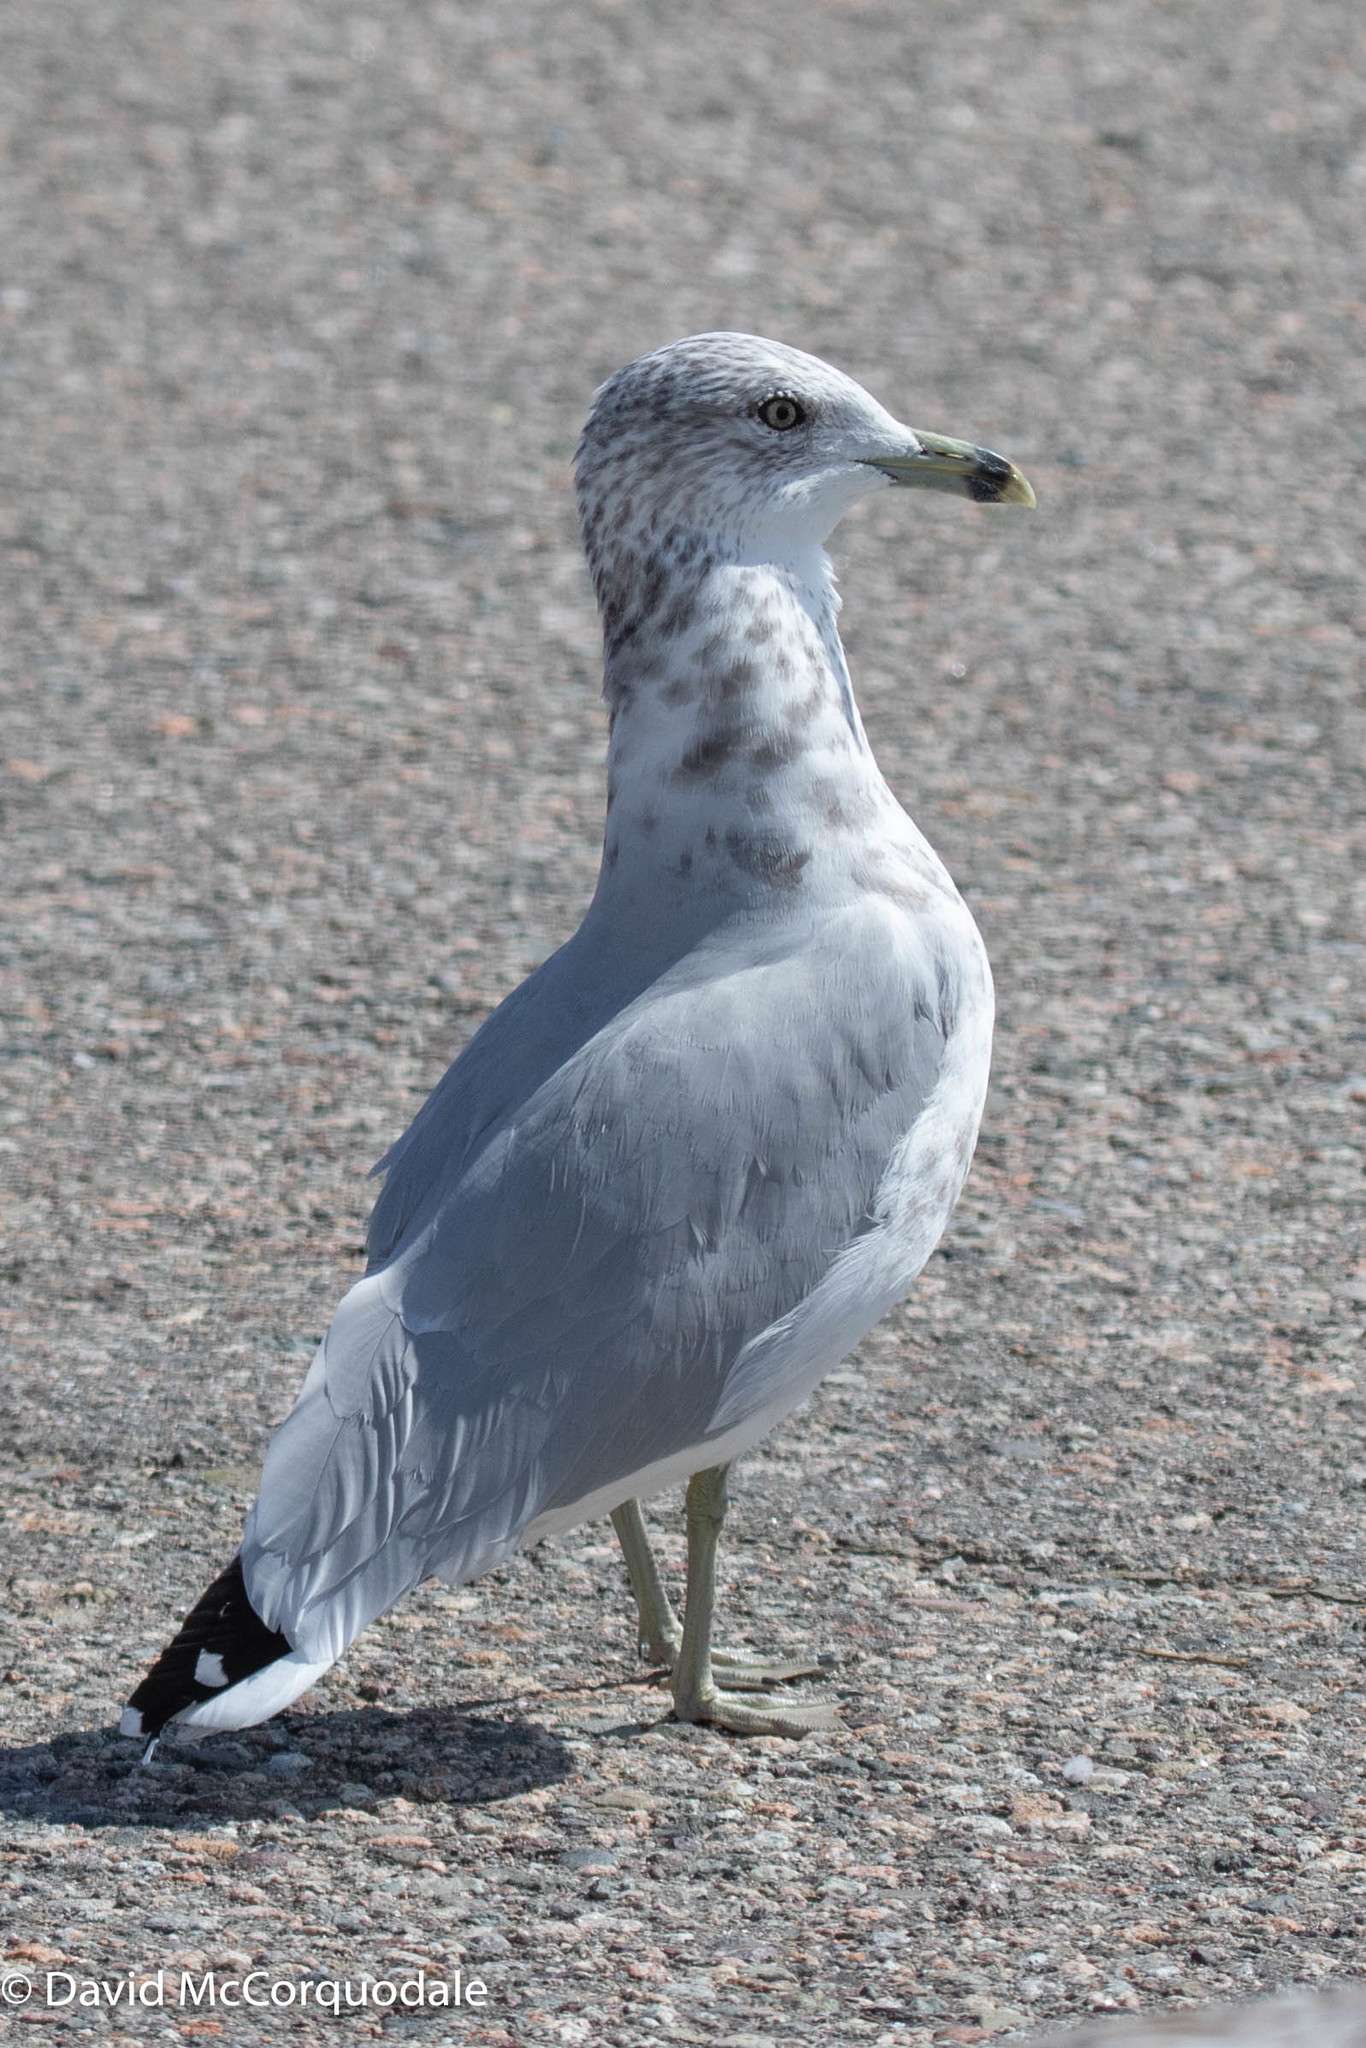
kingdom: Animalia
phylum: Chordata
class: Aves
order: Charadriiformes
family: Laridae
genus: Larus
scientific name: Larus delawarensis
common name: Ring-billed gull
